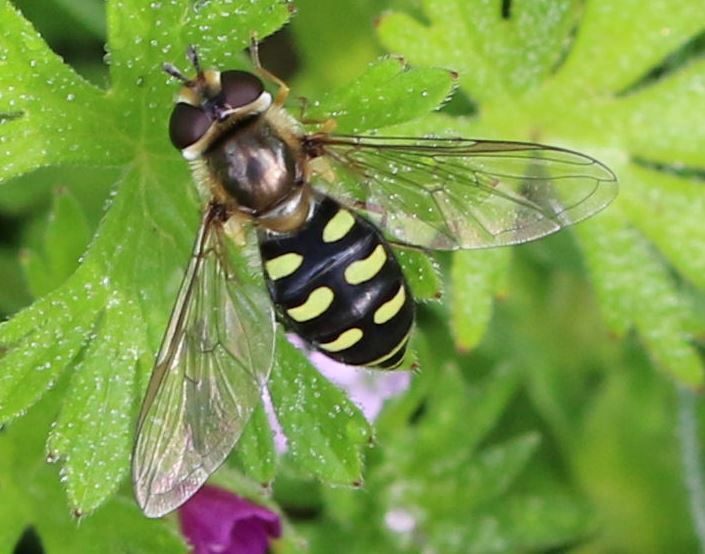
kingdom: Animalia
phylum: Arthropoda
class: Insecta
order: Diptera
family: Syrphidae
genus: Eupeodes
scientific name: Eupeodes luniger
